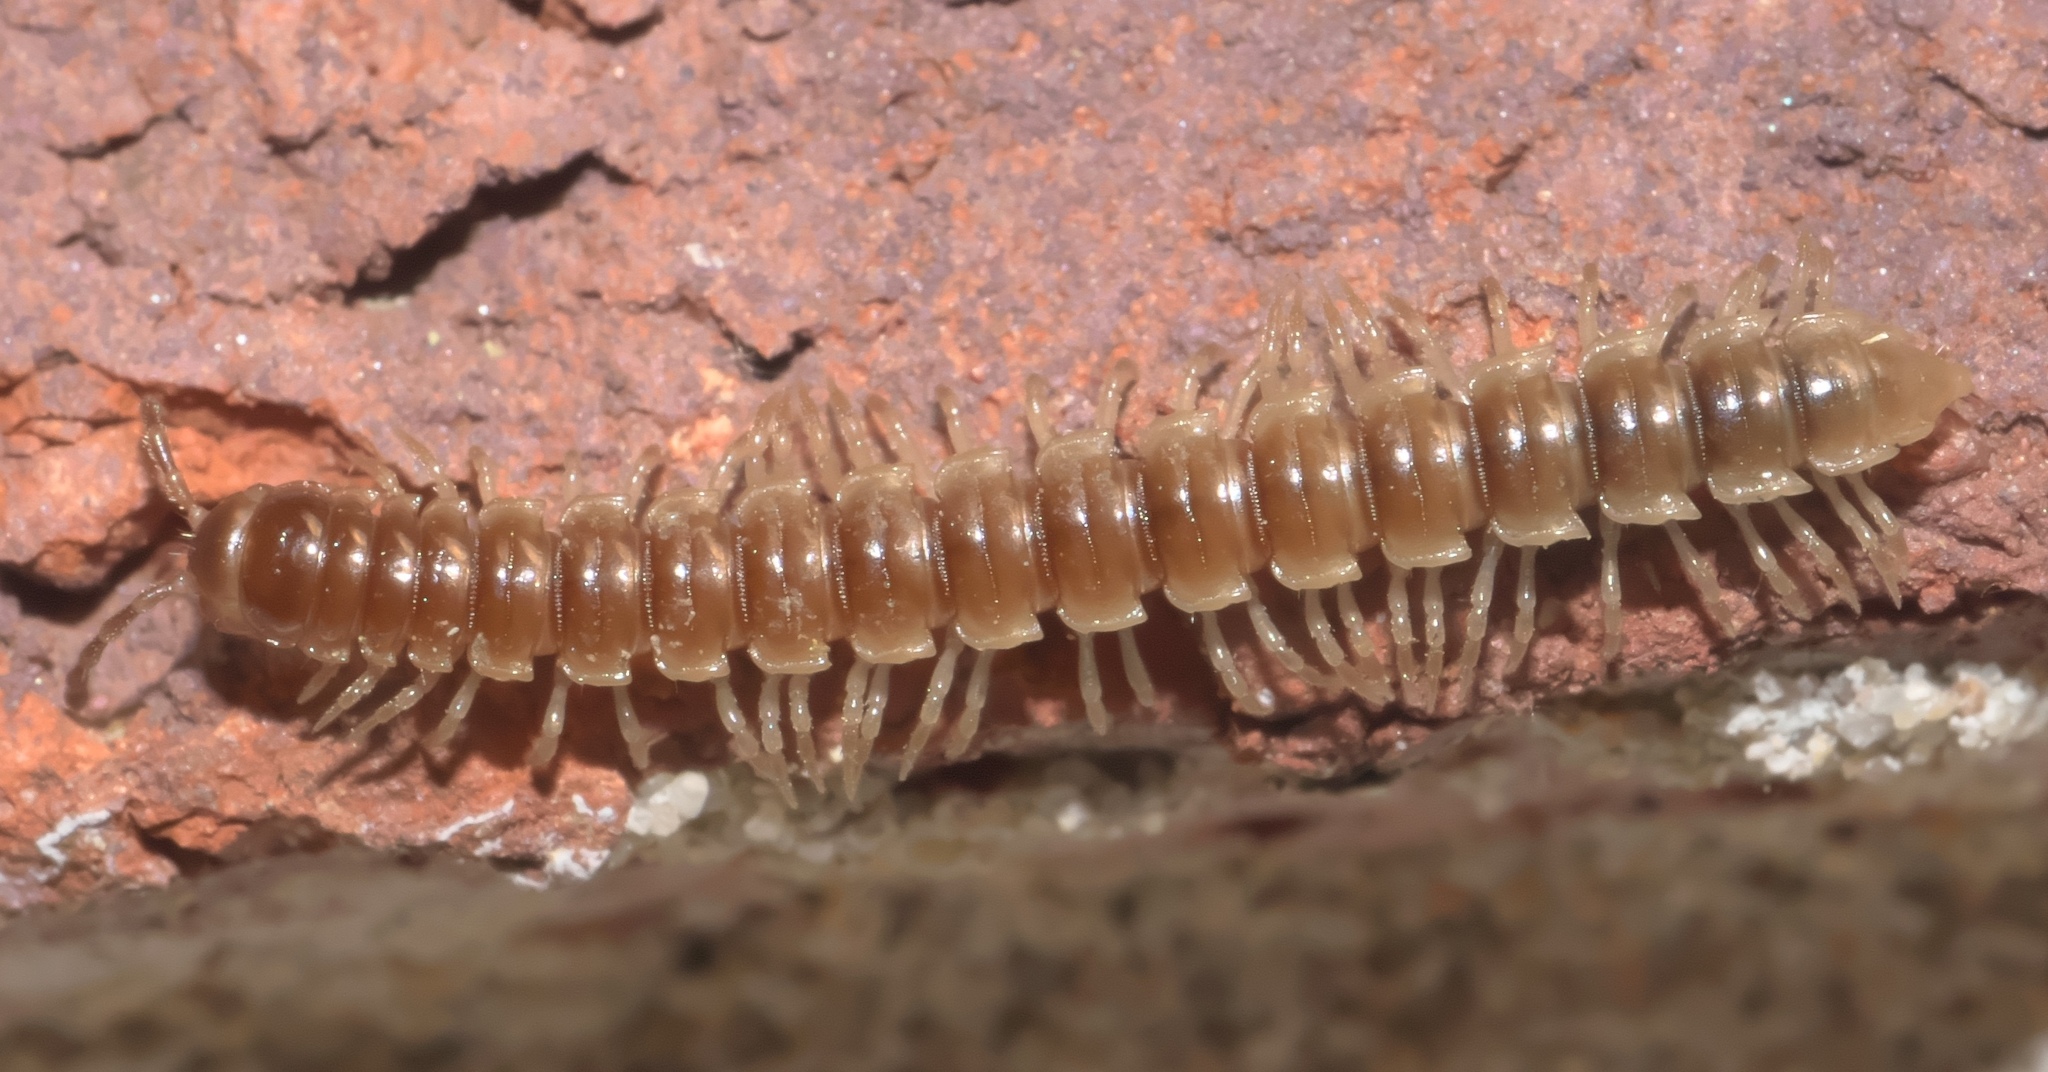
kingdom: Animalia
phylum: Arthropoda
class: Diplopoda
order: Polydesmida
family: Paradoxosomatidae
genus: Oxidus
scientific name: Oxidus gracilis
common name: Greenhouse millipede
